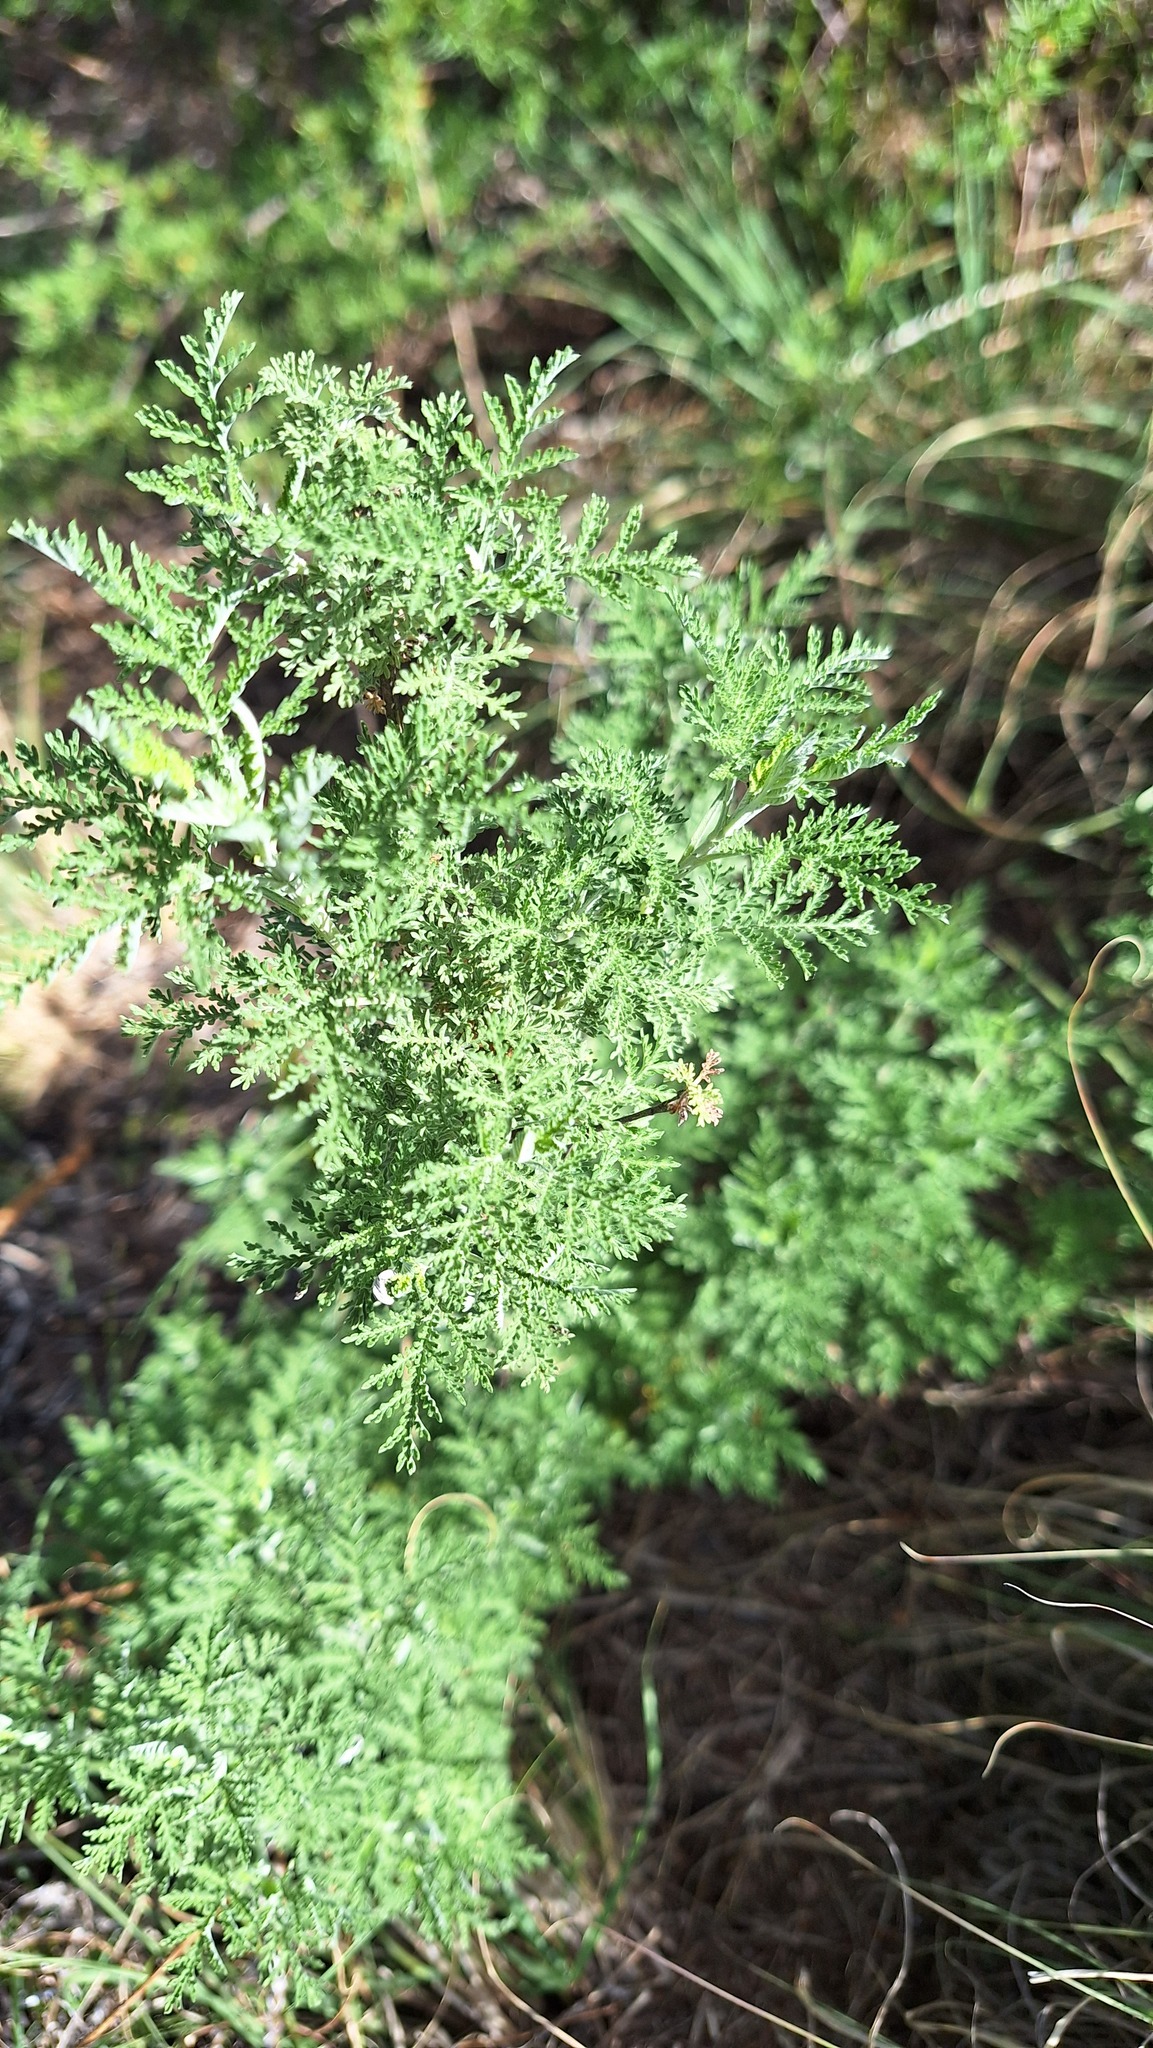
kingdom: Plantae
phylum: Tracheophyta
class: Magnoliopsida
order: Asterales
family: Asteraceae
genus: Artemisia
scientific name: Artemisia afra
